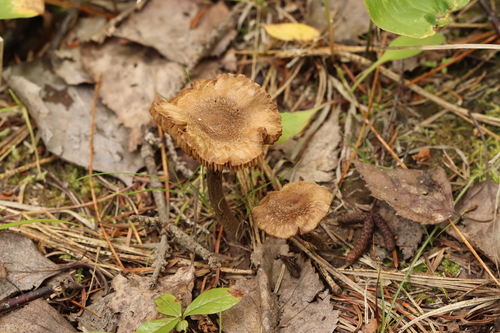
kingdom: Fungi
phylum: Basidiomycota
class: Agaricomycetes
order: Agaricales
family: Inocybaceae
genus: Inocybe
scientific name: Inocybe lacera
